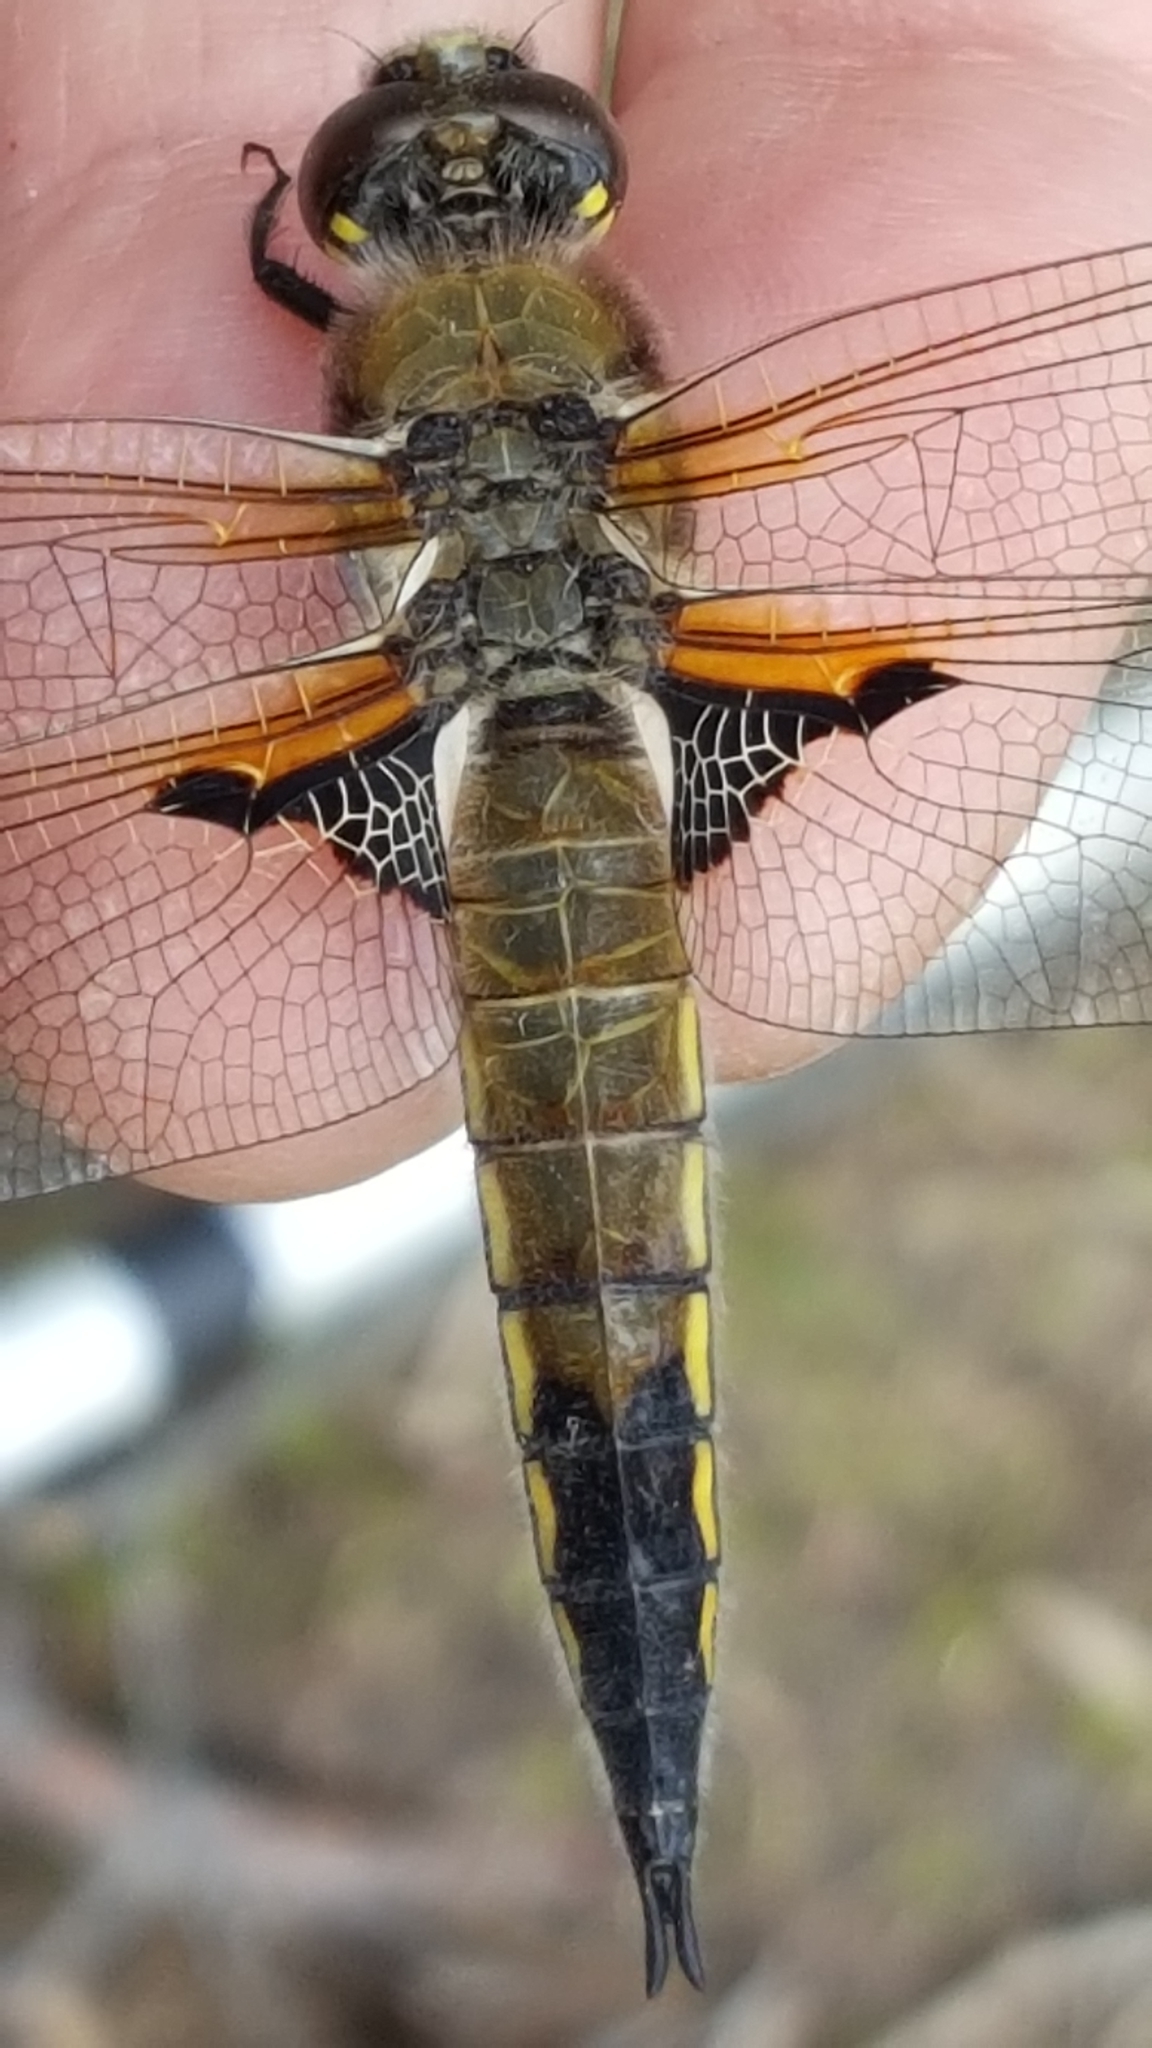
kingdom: Animalia
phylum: Arthropoda
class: Insecta
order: Odonata
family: Libellulidae
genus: Libellula
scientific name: Libellula quadrimaculata
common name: Four-spotted chaser
